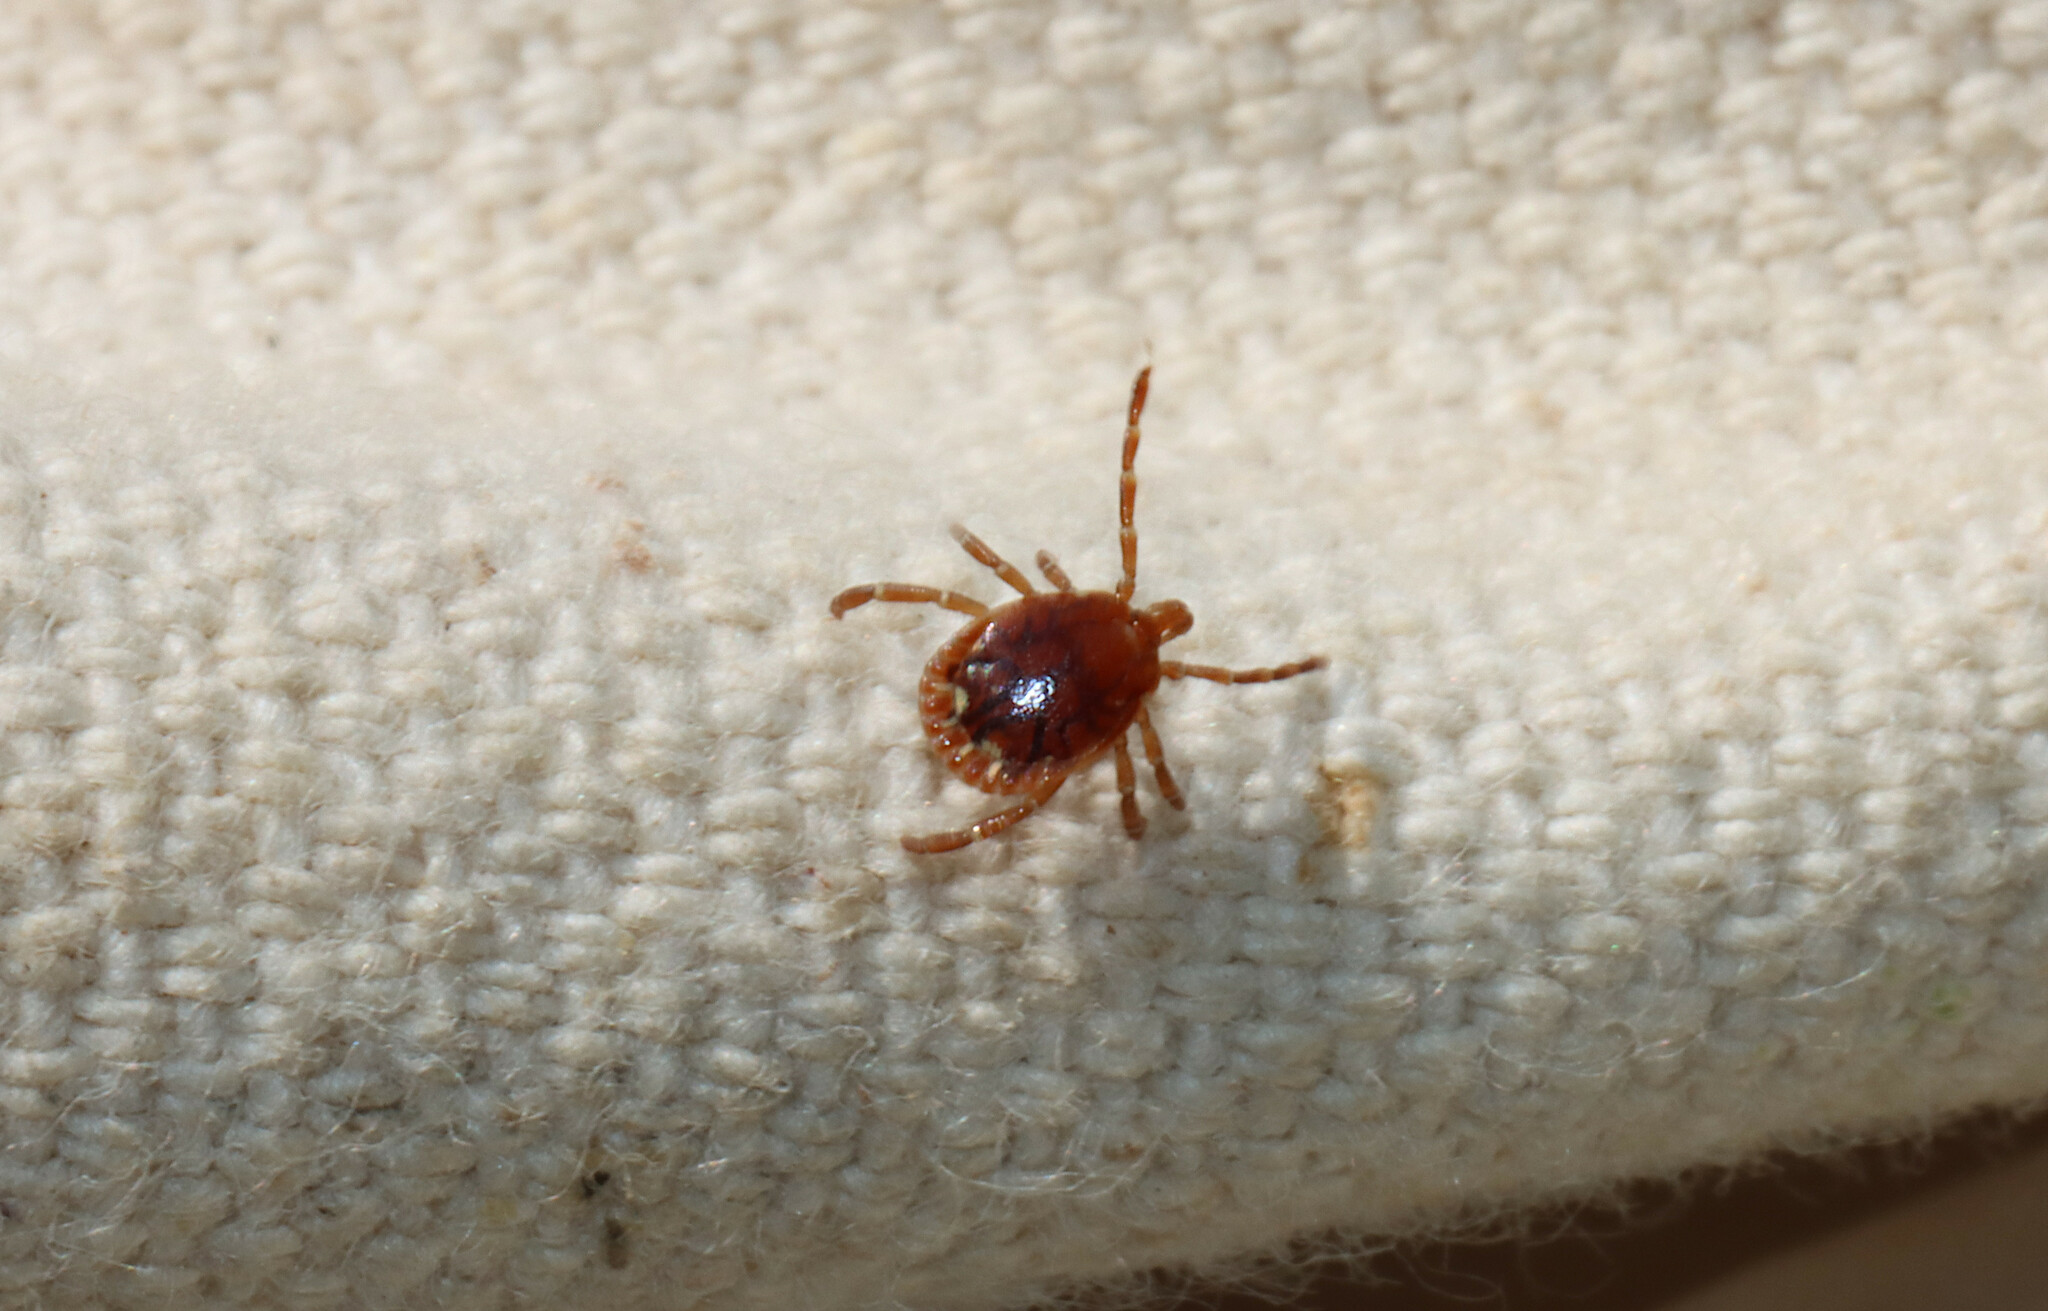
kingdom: Animalia
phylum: Arthropoda
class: Arachnida
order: Ixodida
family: Ixodidae
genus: Amblyomma
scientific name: Amblyomma americanum
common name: Lone star tick
